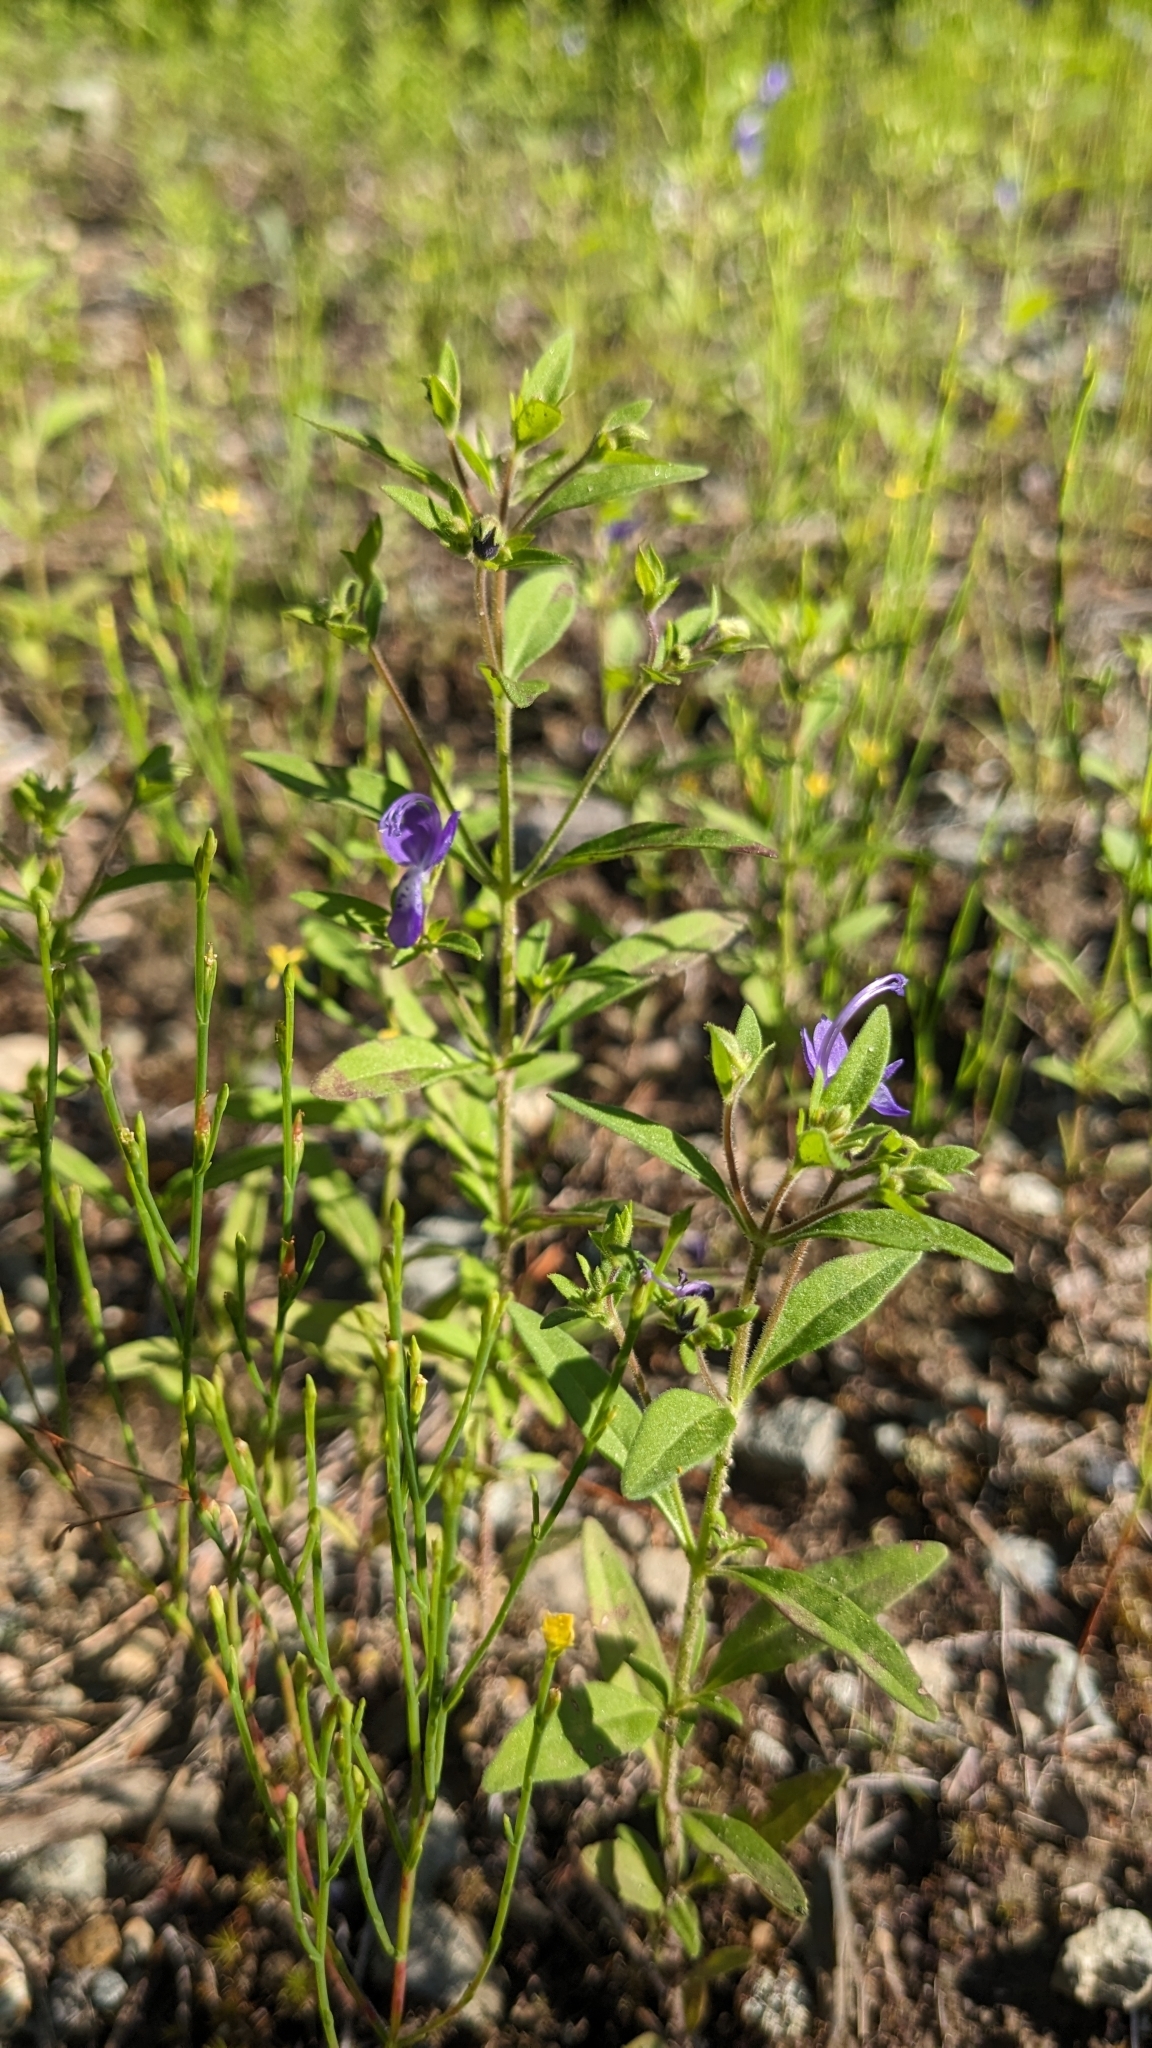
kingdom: Plantae
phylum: Tracheophyta
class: Magnoliopsida
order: Lamiales
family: Lamiaceae
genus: Trichostema
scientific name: Trichostema dichotomum
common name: Bastard pennyroyal
